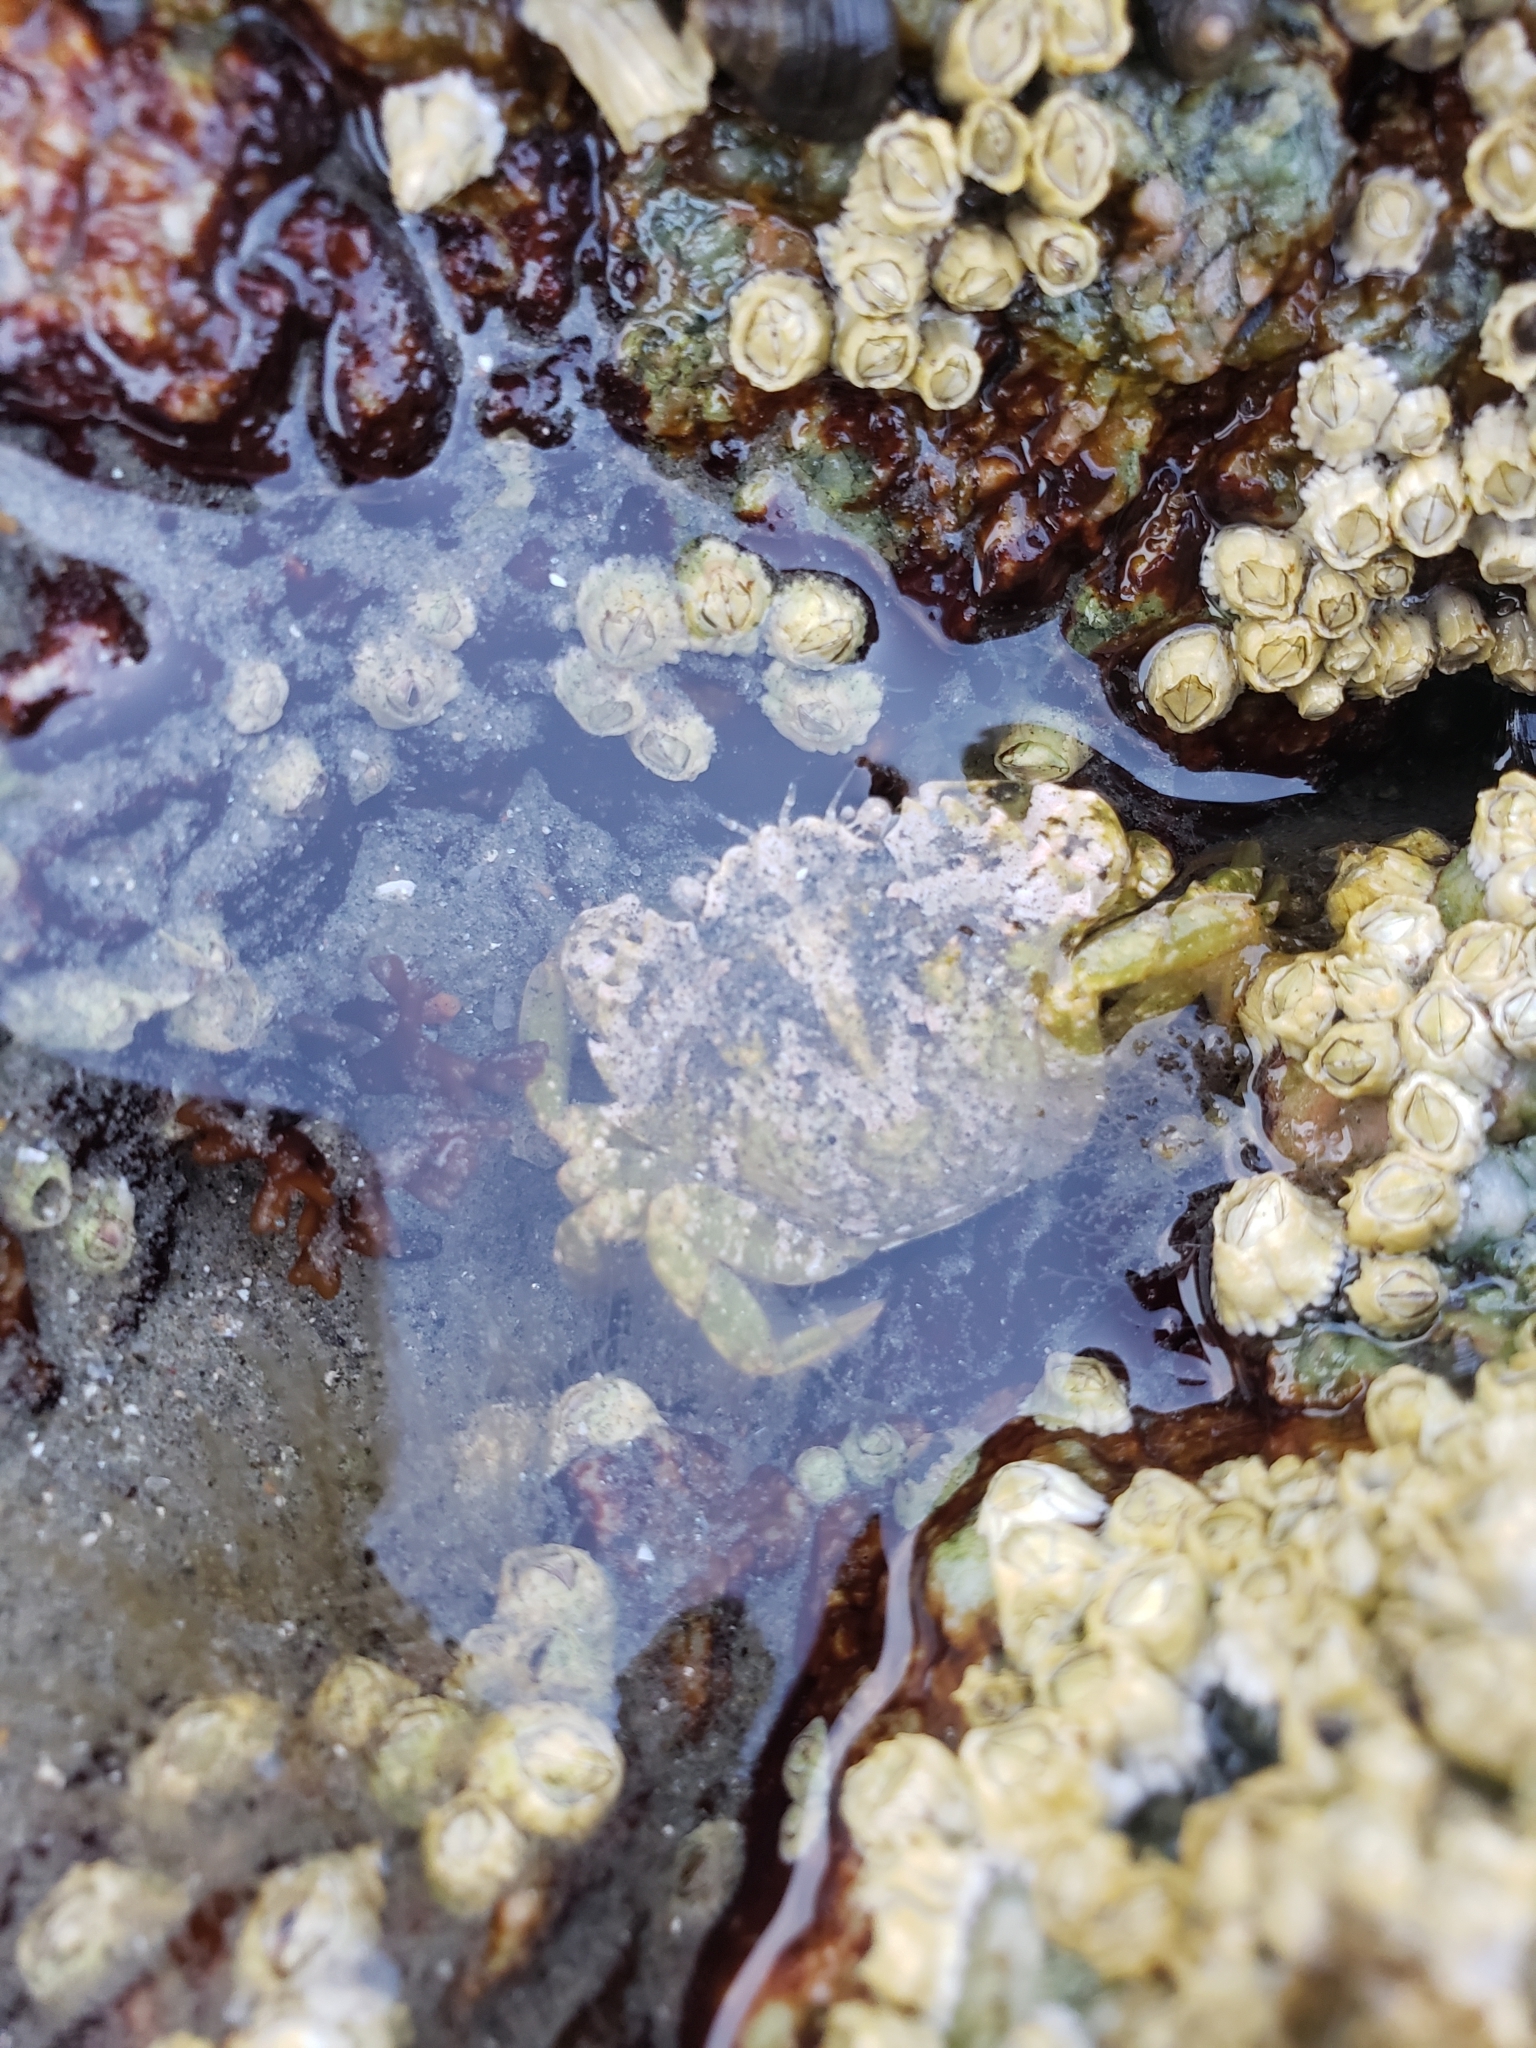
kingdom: Animalia
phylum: Arthropoda
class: Malacostraca
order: Decapoda
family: Carcinidae
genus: Carcinus
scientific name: Carcinus maenas
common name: European green crab
